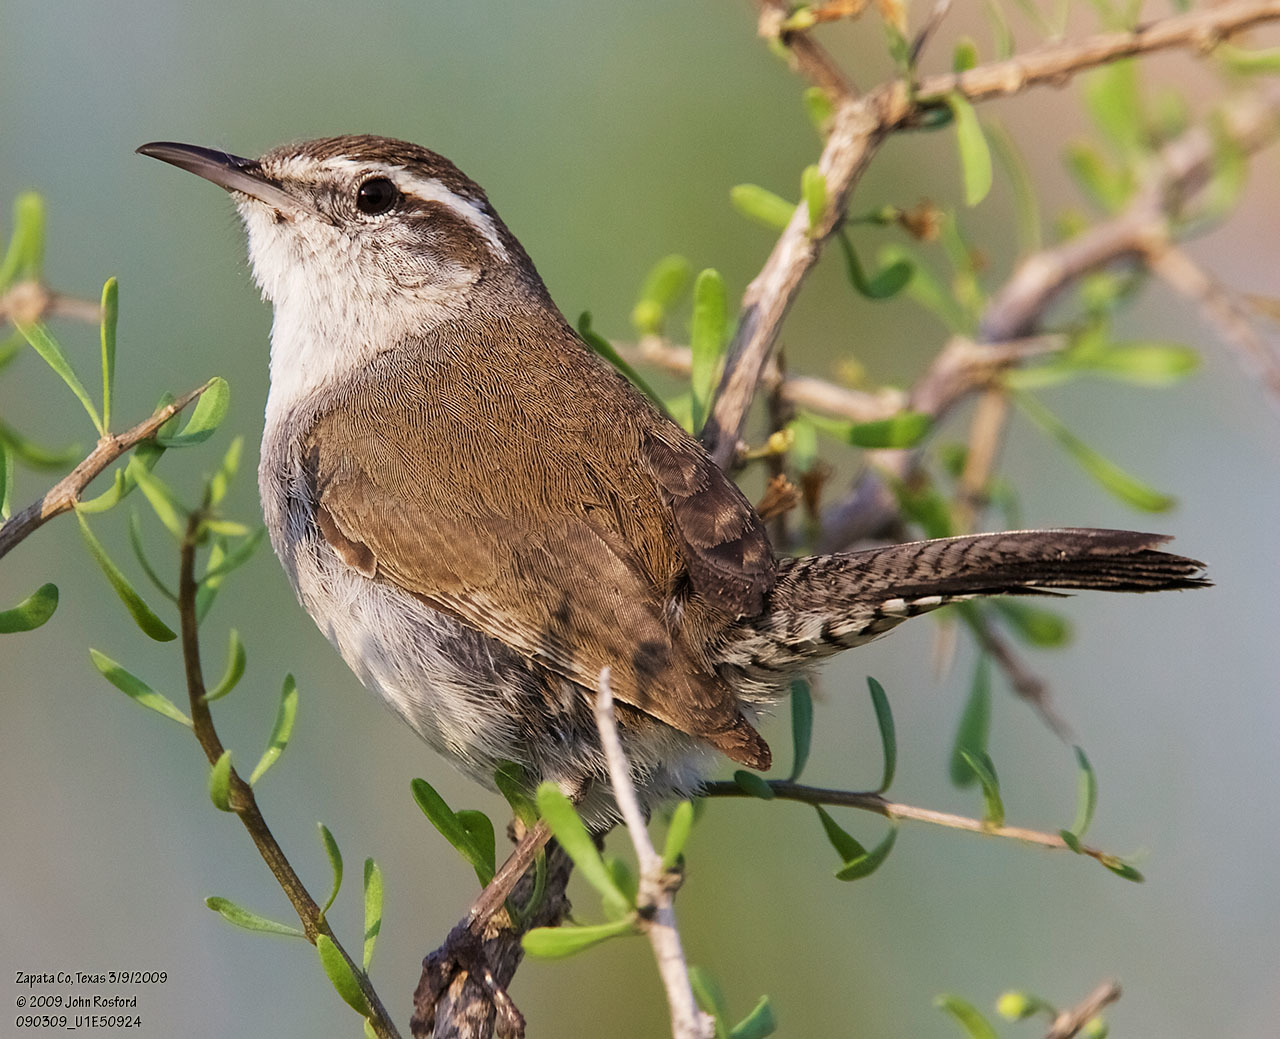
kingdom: Animalia
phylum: Chordata
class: Aves
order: Passeriformes
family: Troglodytidae
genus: Thryomanes
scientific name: Thryomanes bewickii
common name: Bewick's wren
